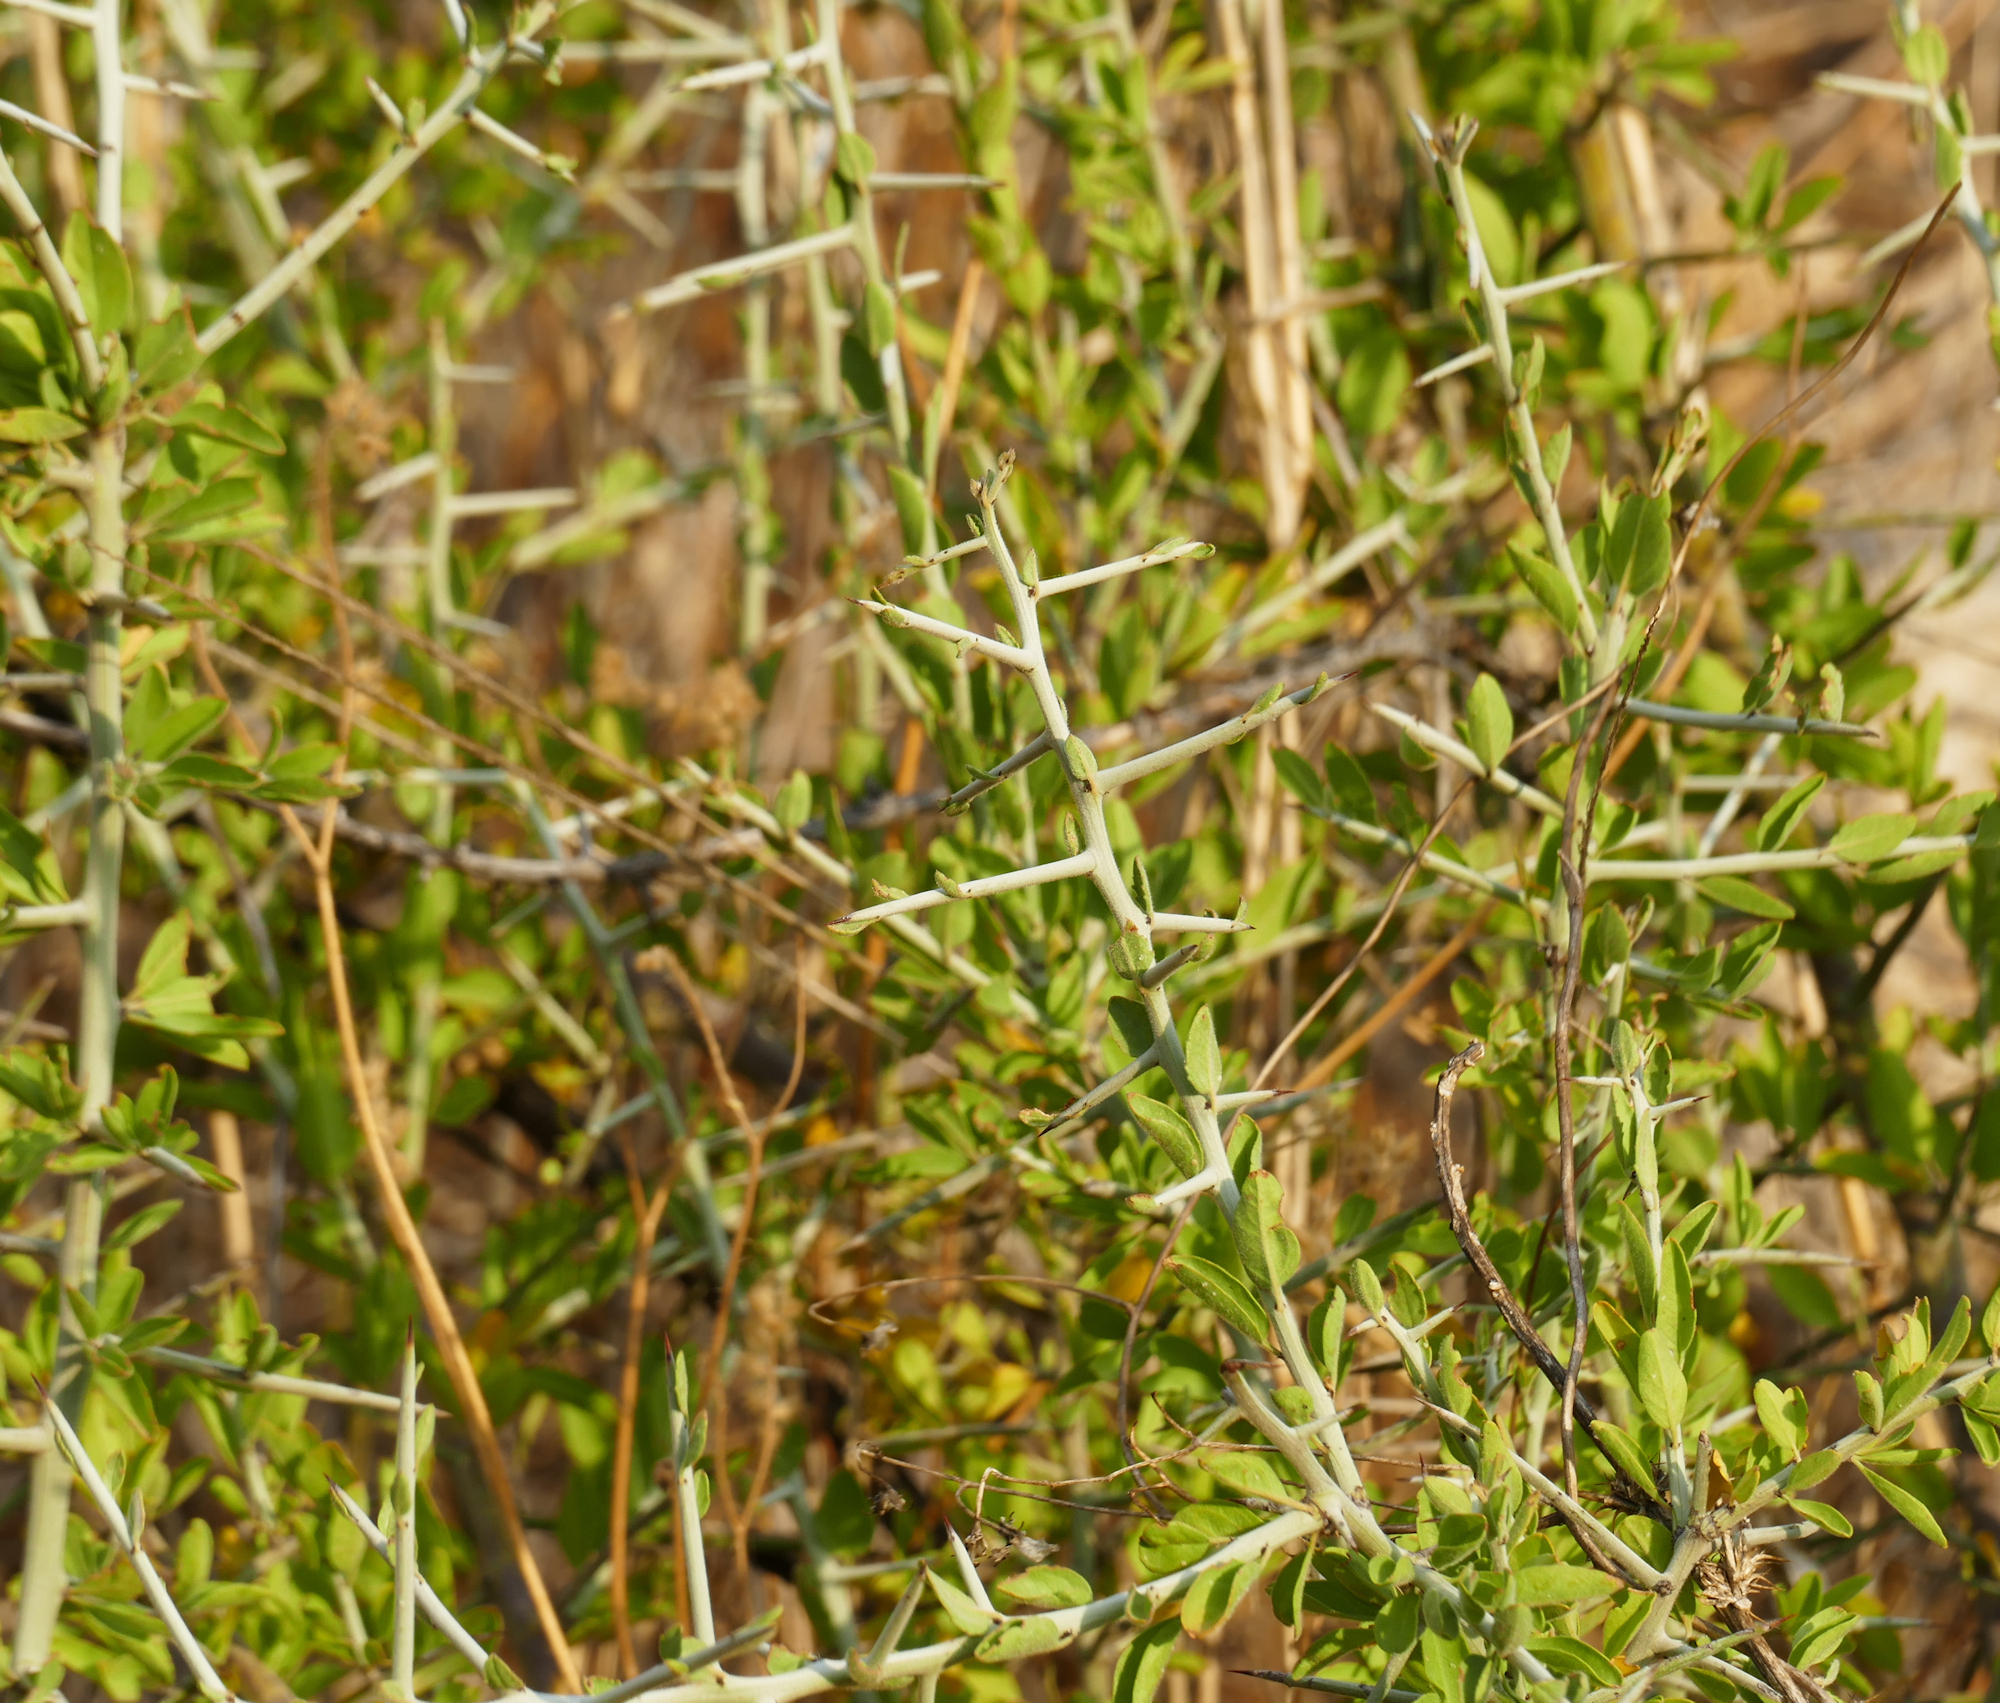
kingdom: Plantae
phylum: Tracheophyta
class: Magnoliopsida
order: Rosales
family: Rhamnaceae
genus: Sarcomphalus
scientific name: Sarcomphalus obtusifolius
